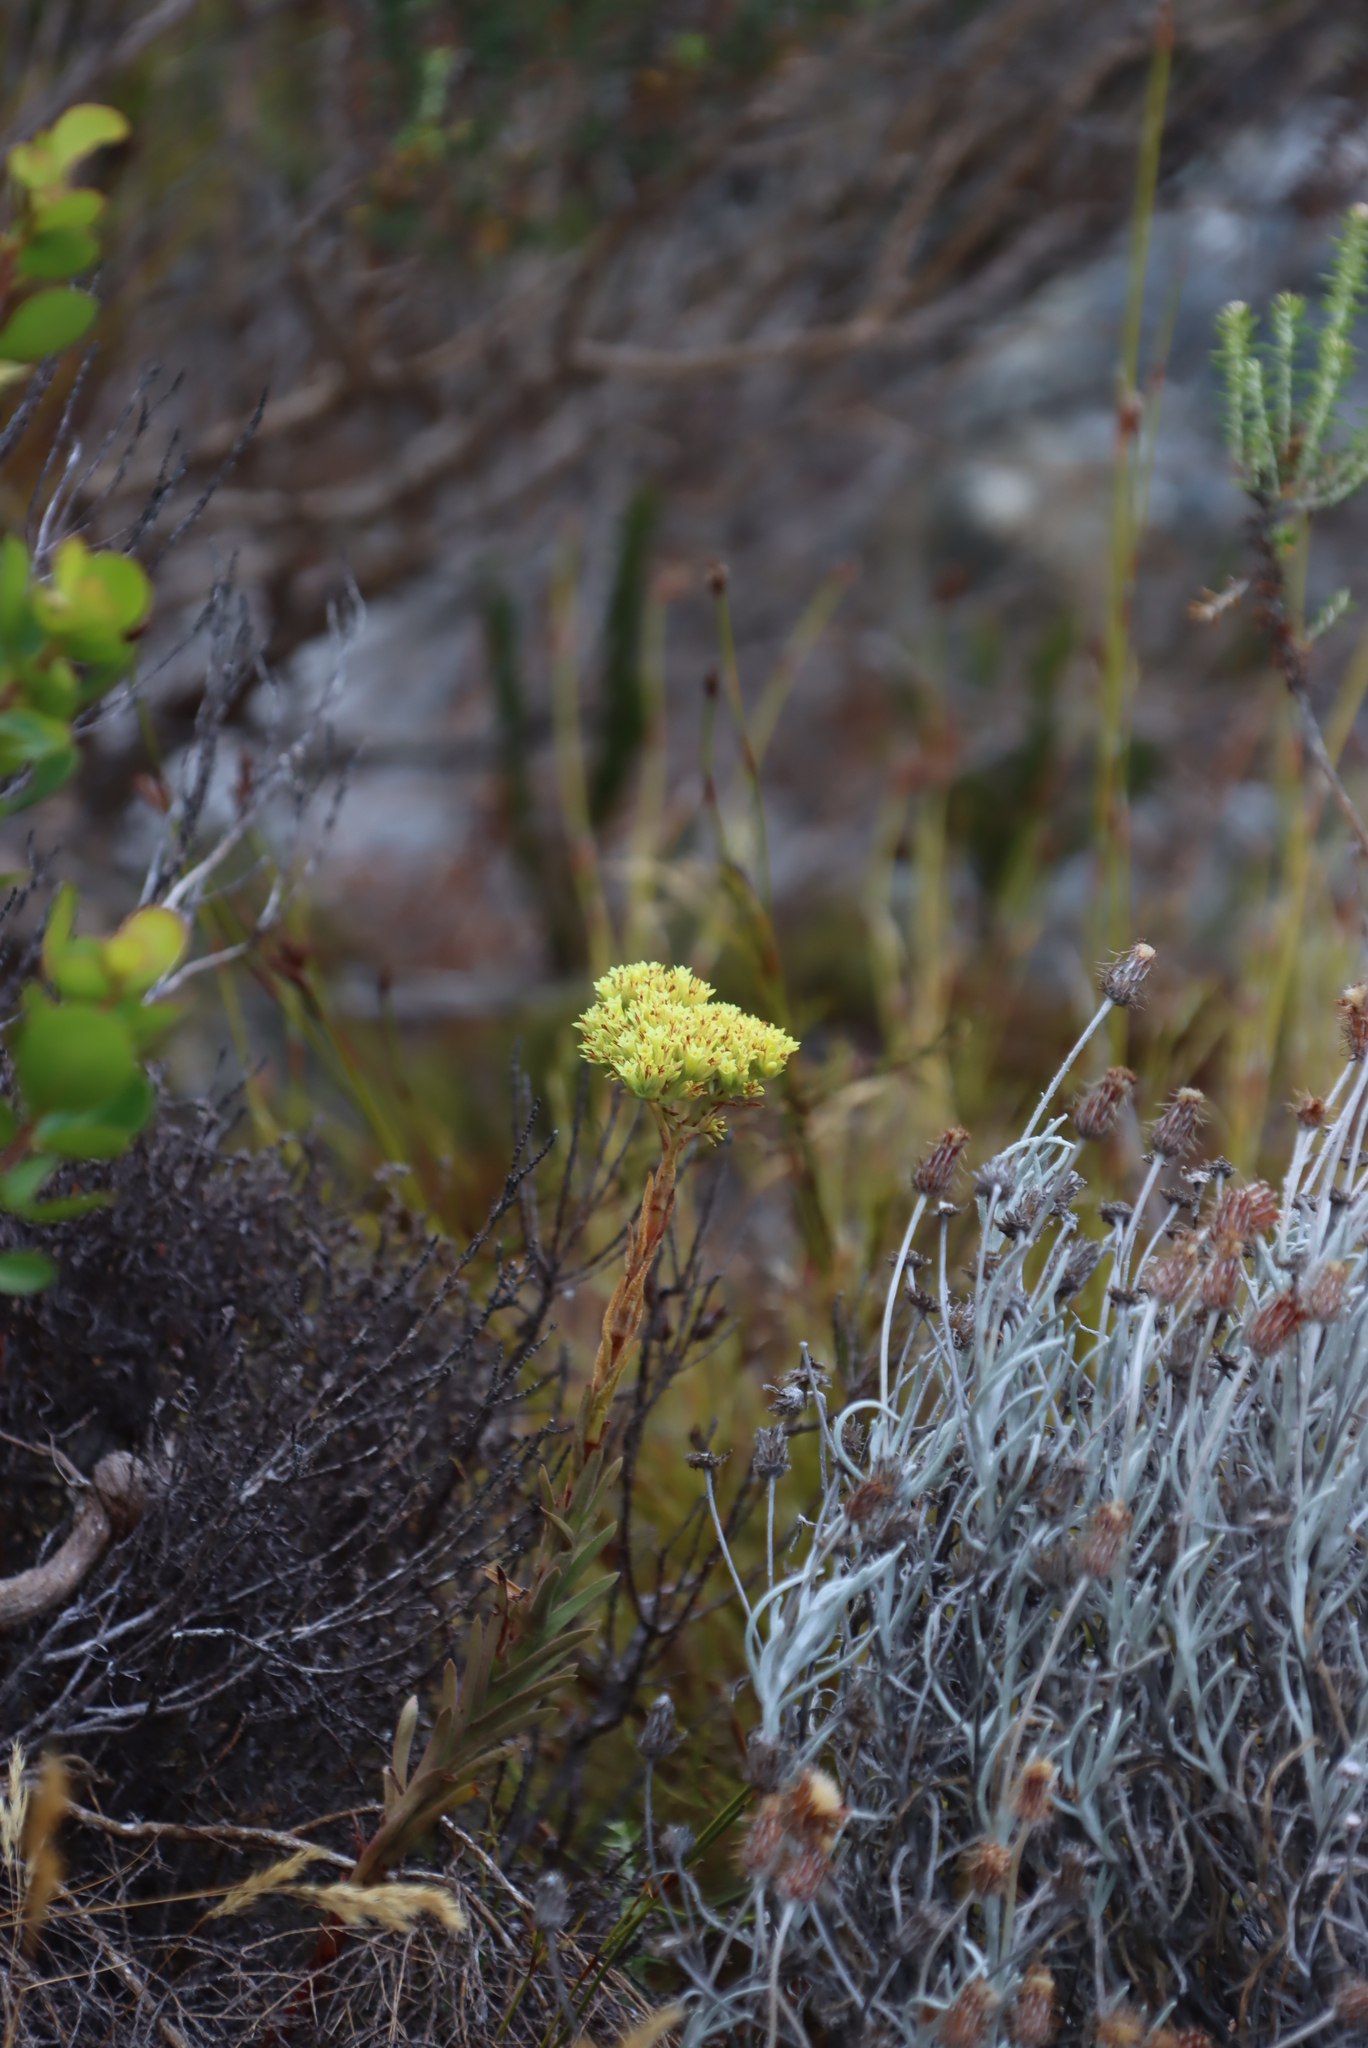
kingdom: Plantae
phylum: Tracheophyta
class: Magnoliopsida
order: Saxifragales
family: Crassulaceae
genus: Crassula
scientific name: Crassula flava
